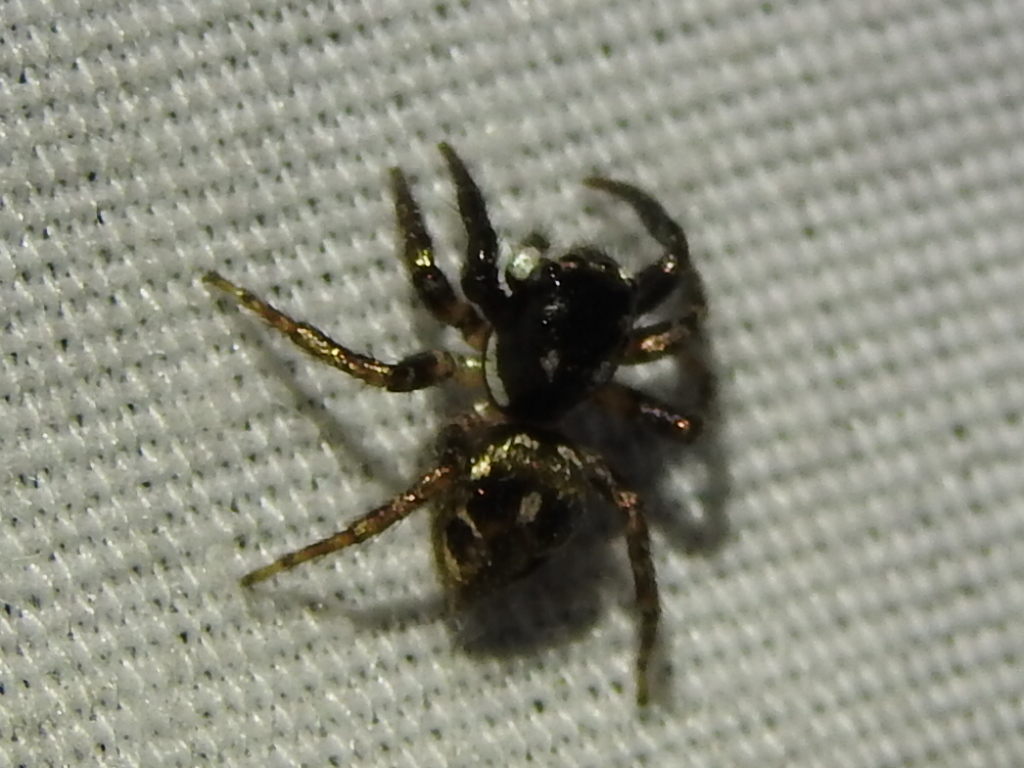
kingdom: Animalia
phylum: Arthropoda
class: Arachnida
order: Araneae
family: Salticidae
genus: Anasaitis
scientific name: Anasaitis canosa
